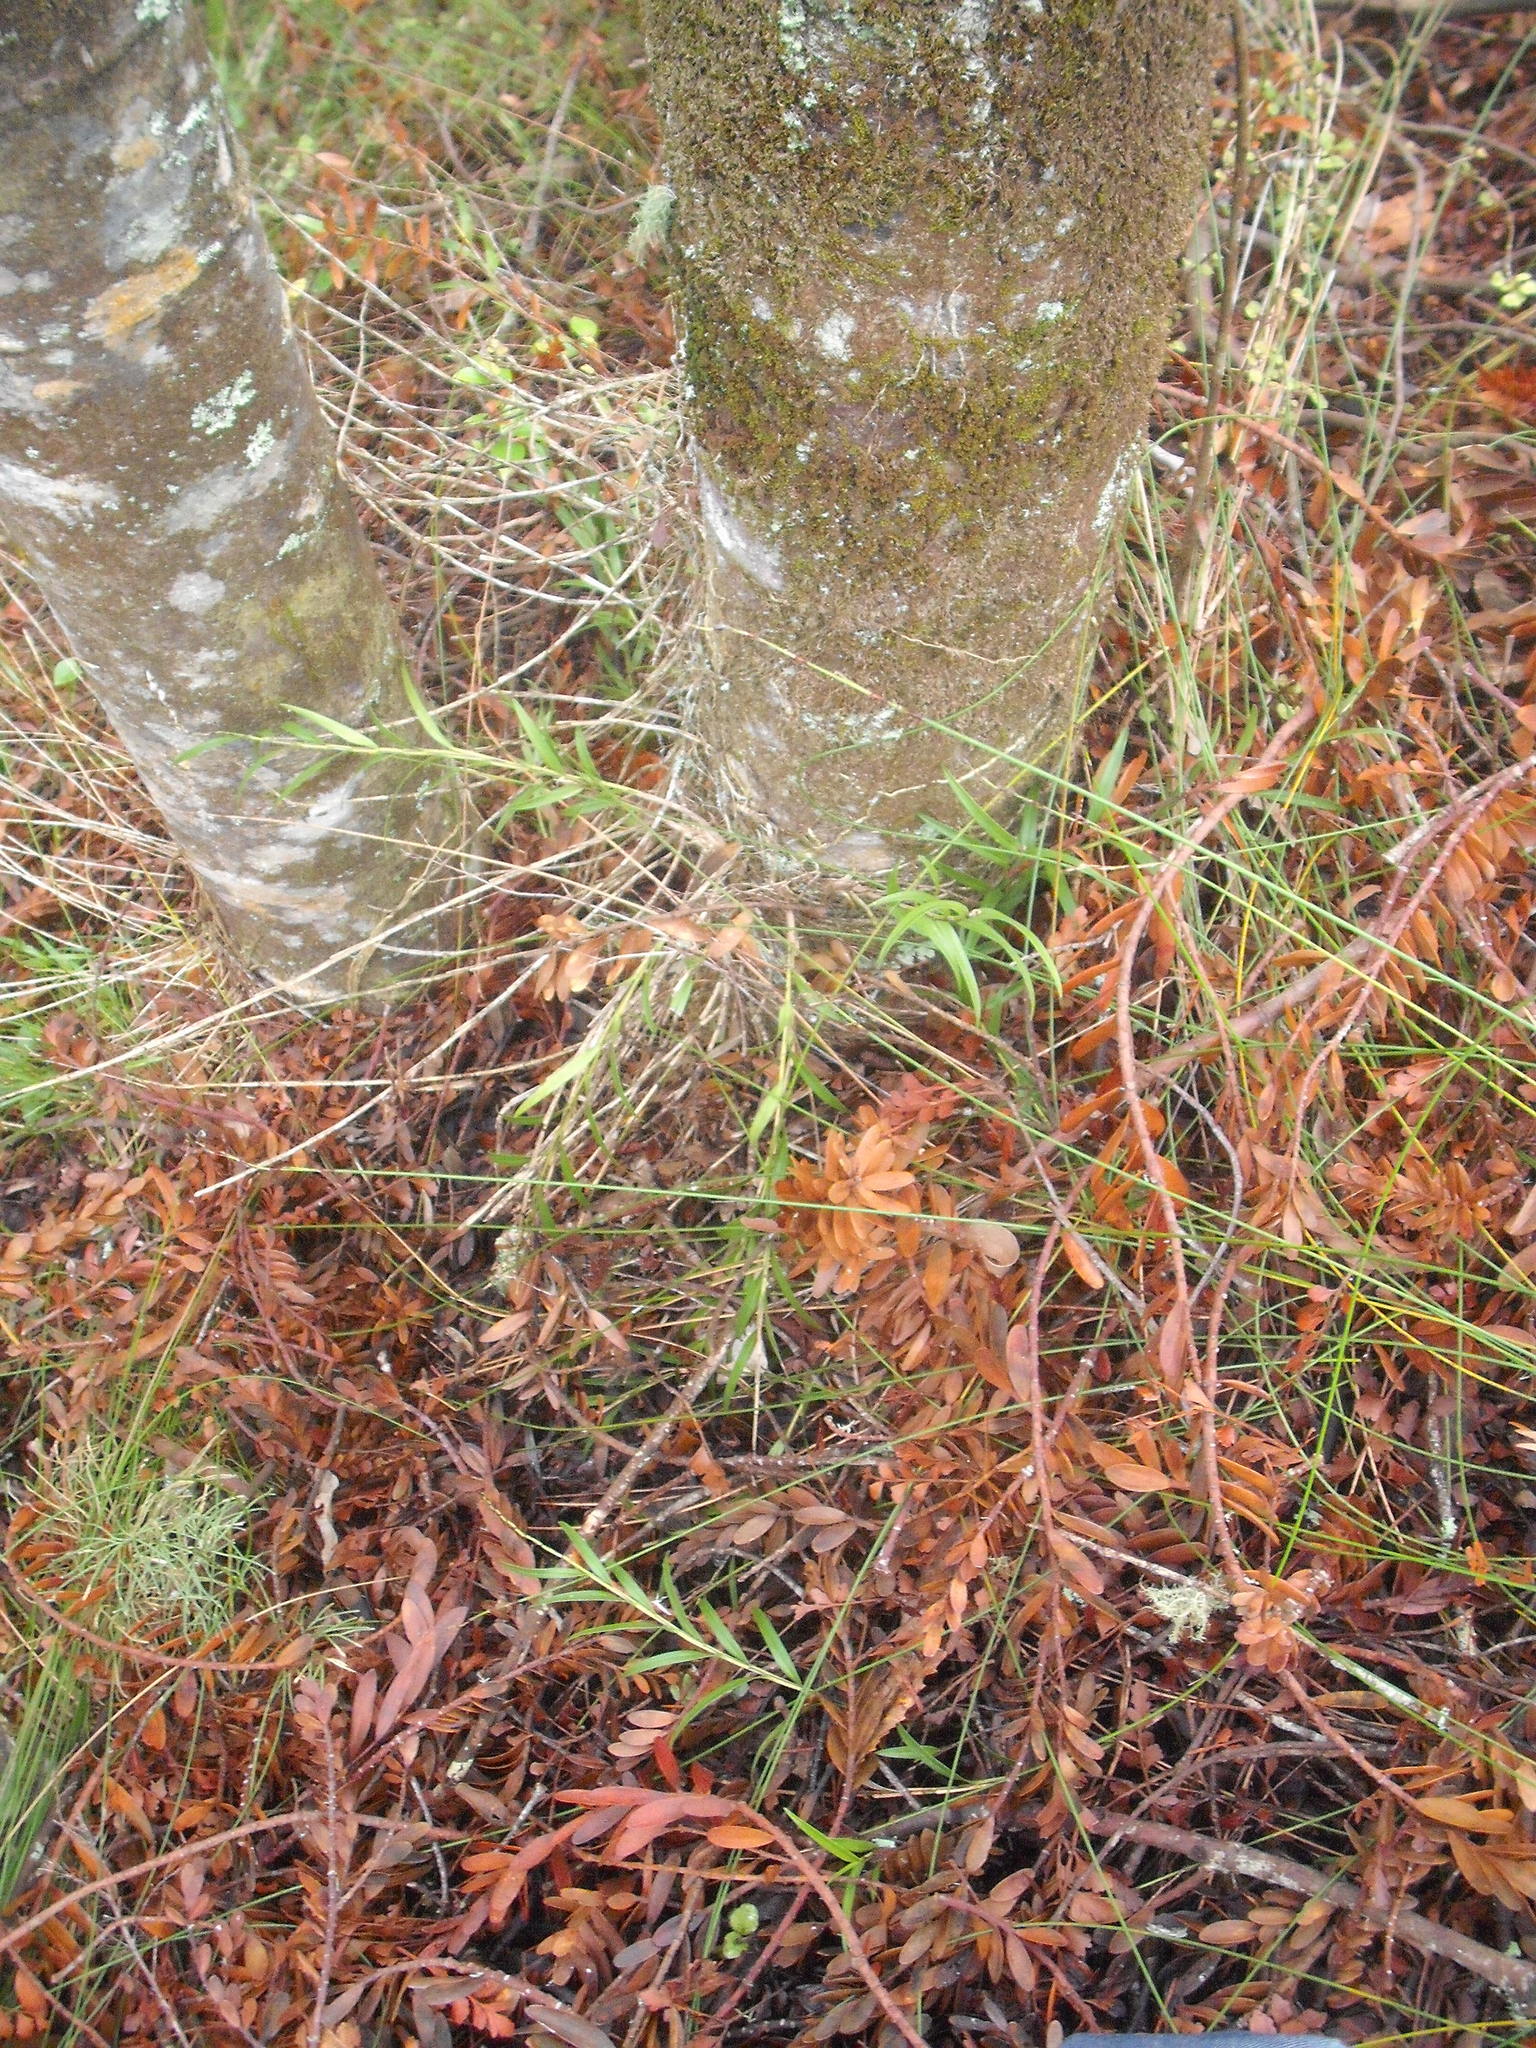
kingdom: Plantae
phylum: Tracheophyta
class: Liliopsida
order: Asparagales
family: Orchidaceae
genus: Earina
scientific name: Earina autumnalis
